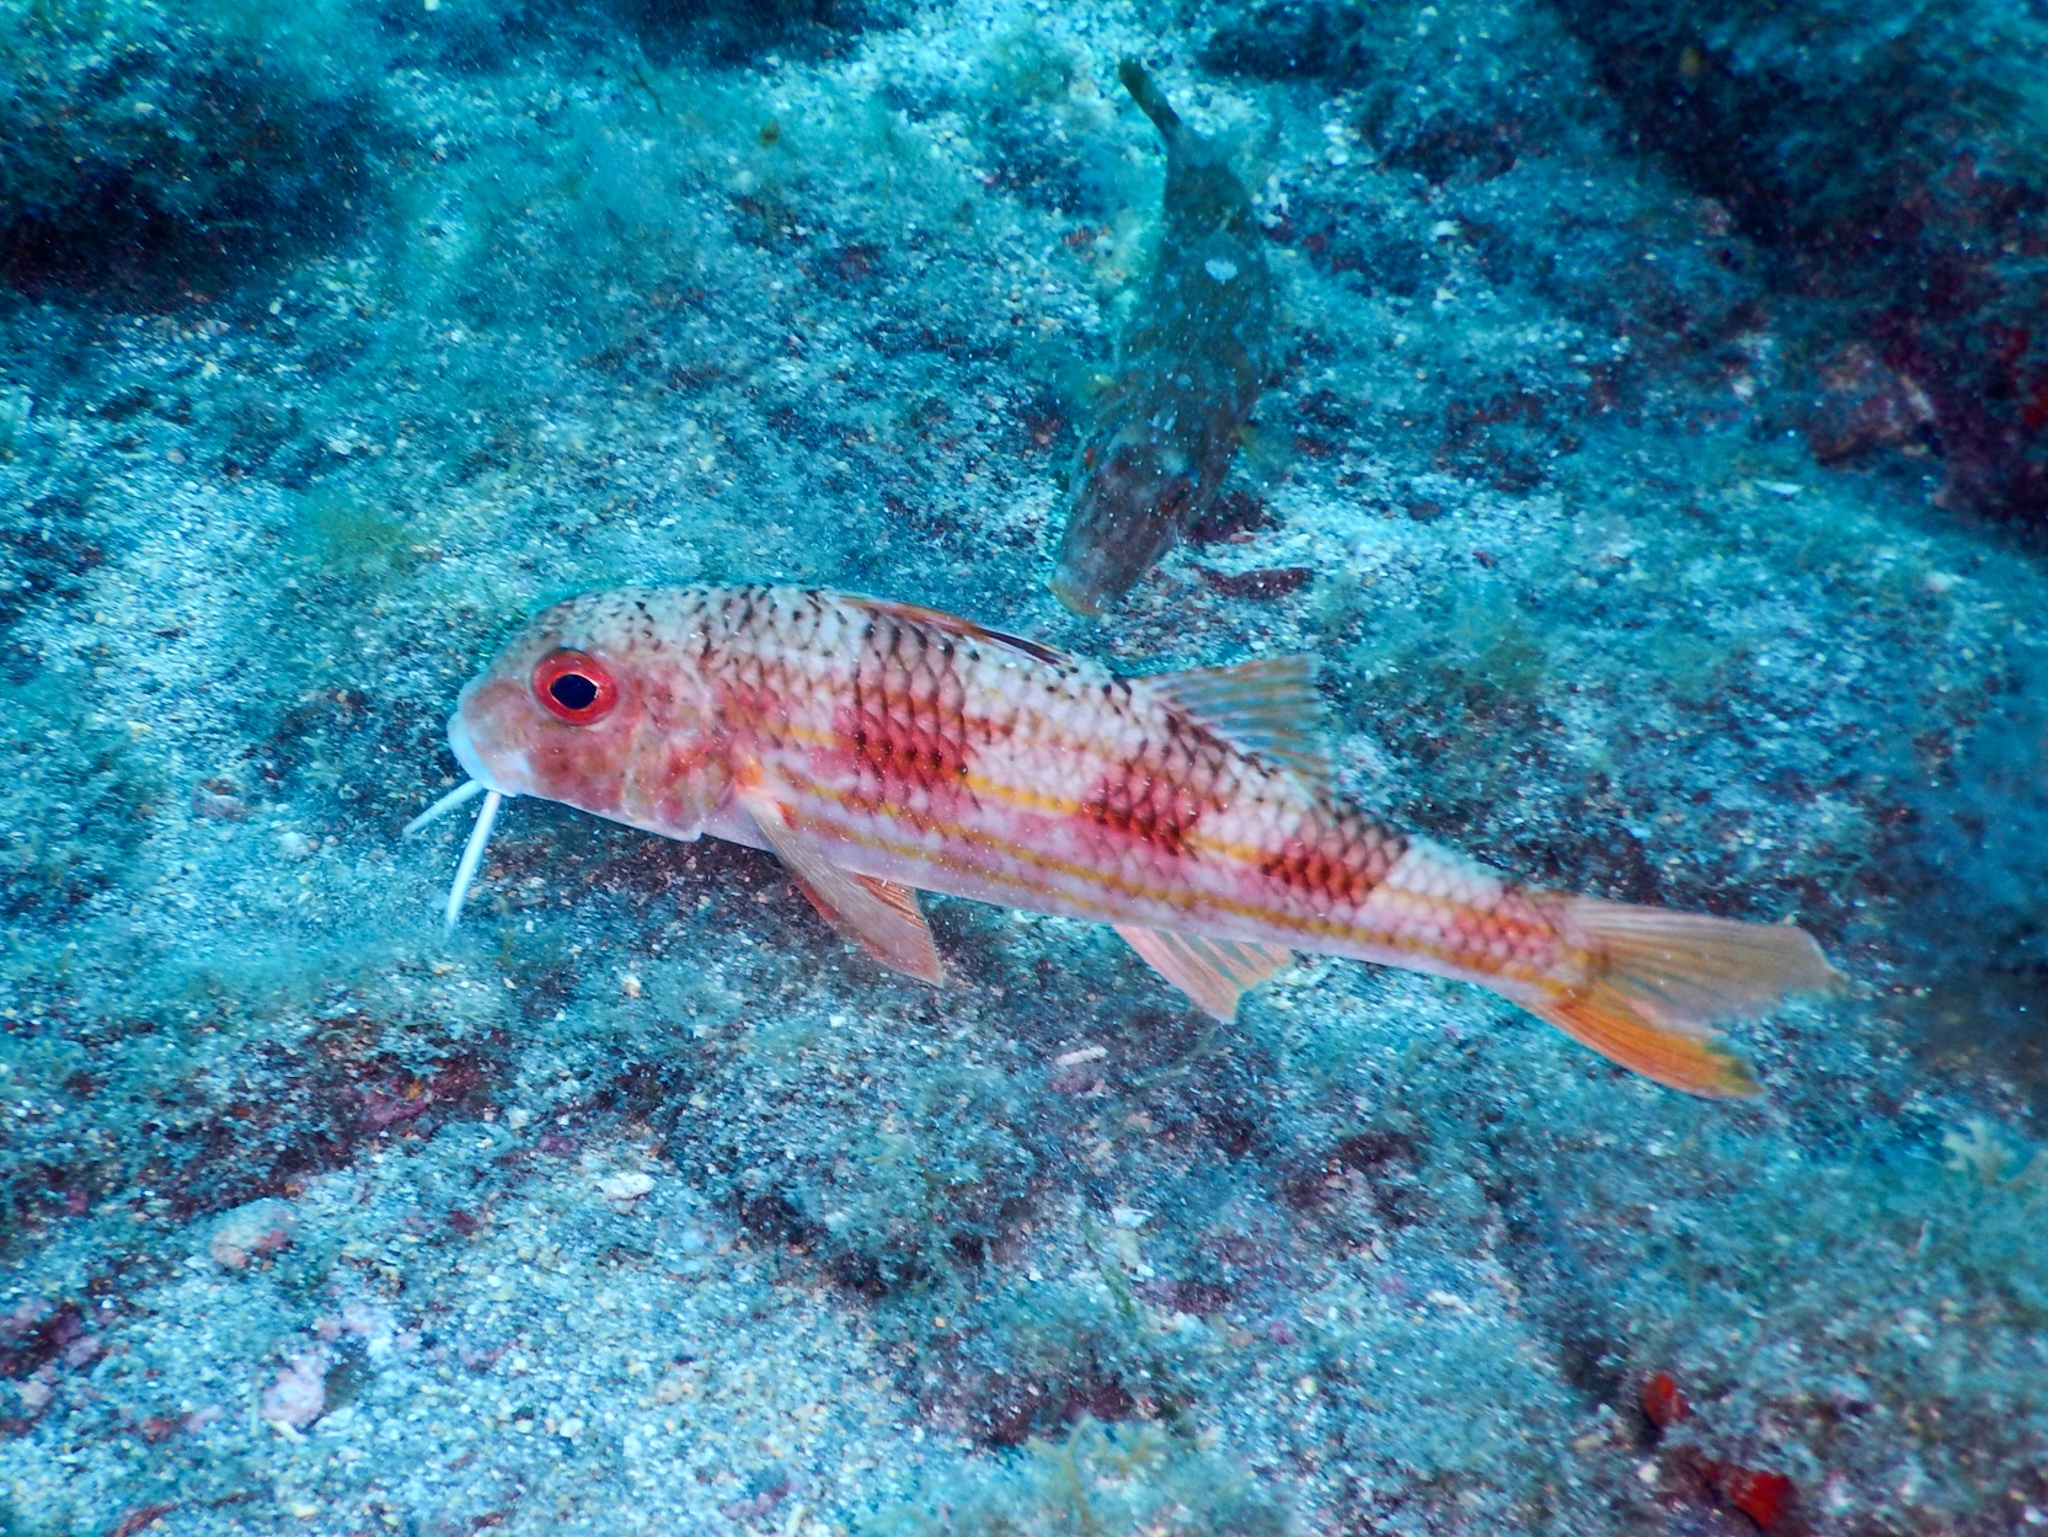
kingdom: Animalia
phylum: Chordata
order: Perciformes
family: Mullidae
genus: Mullus
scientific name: Mullus surmuletus
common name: Red mullet
